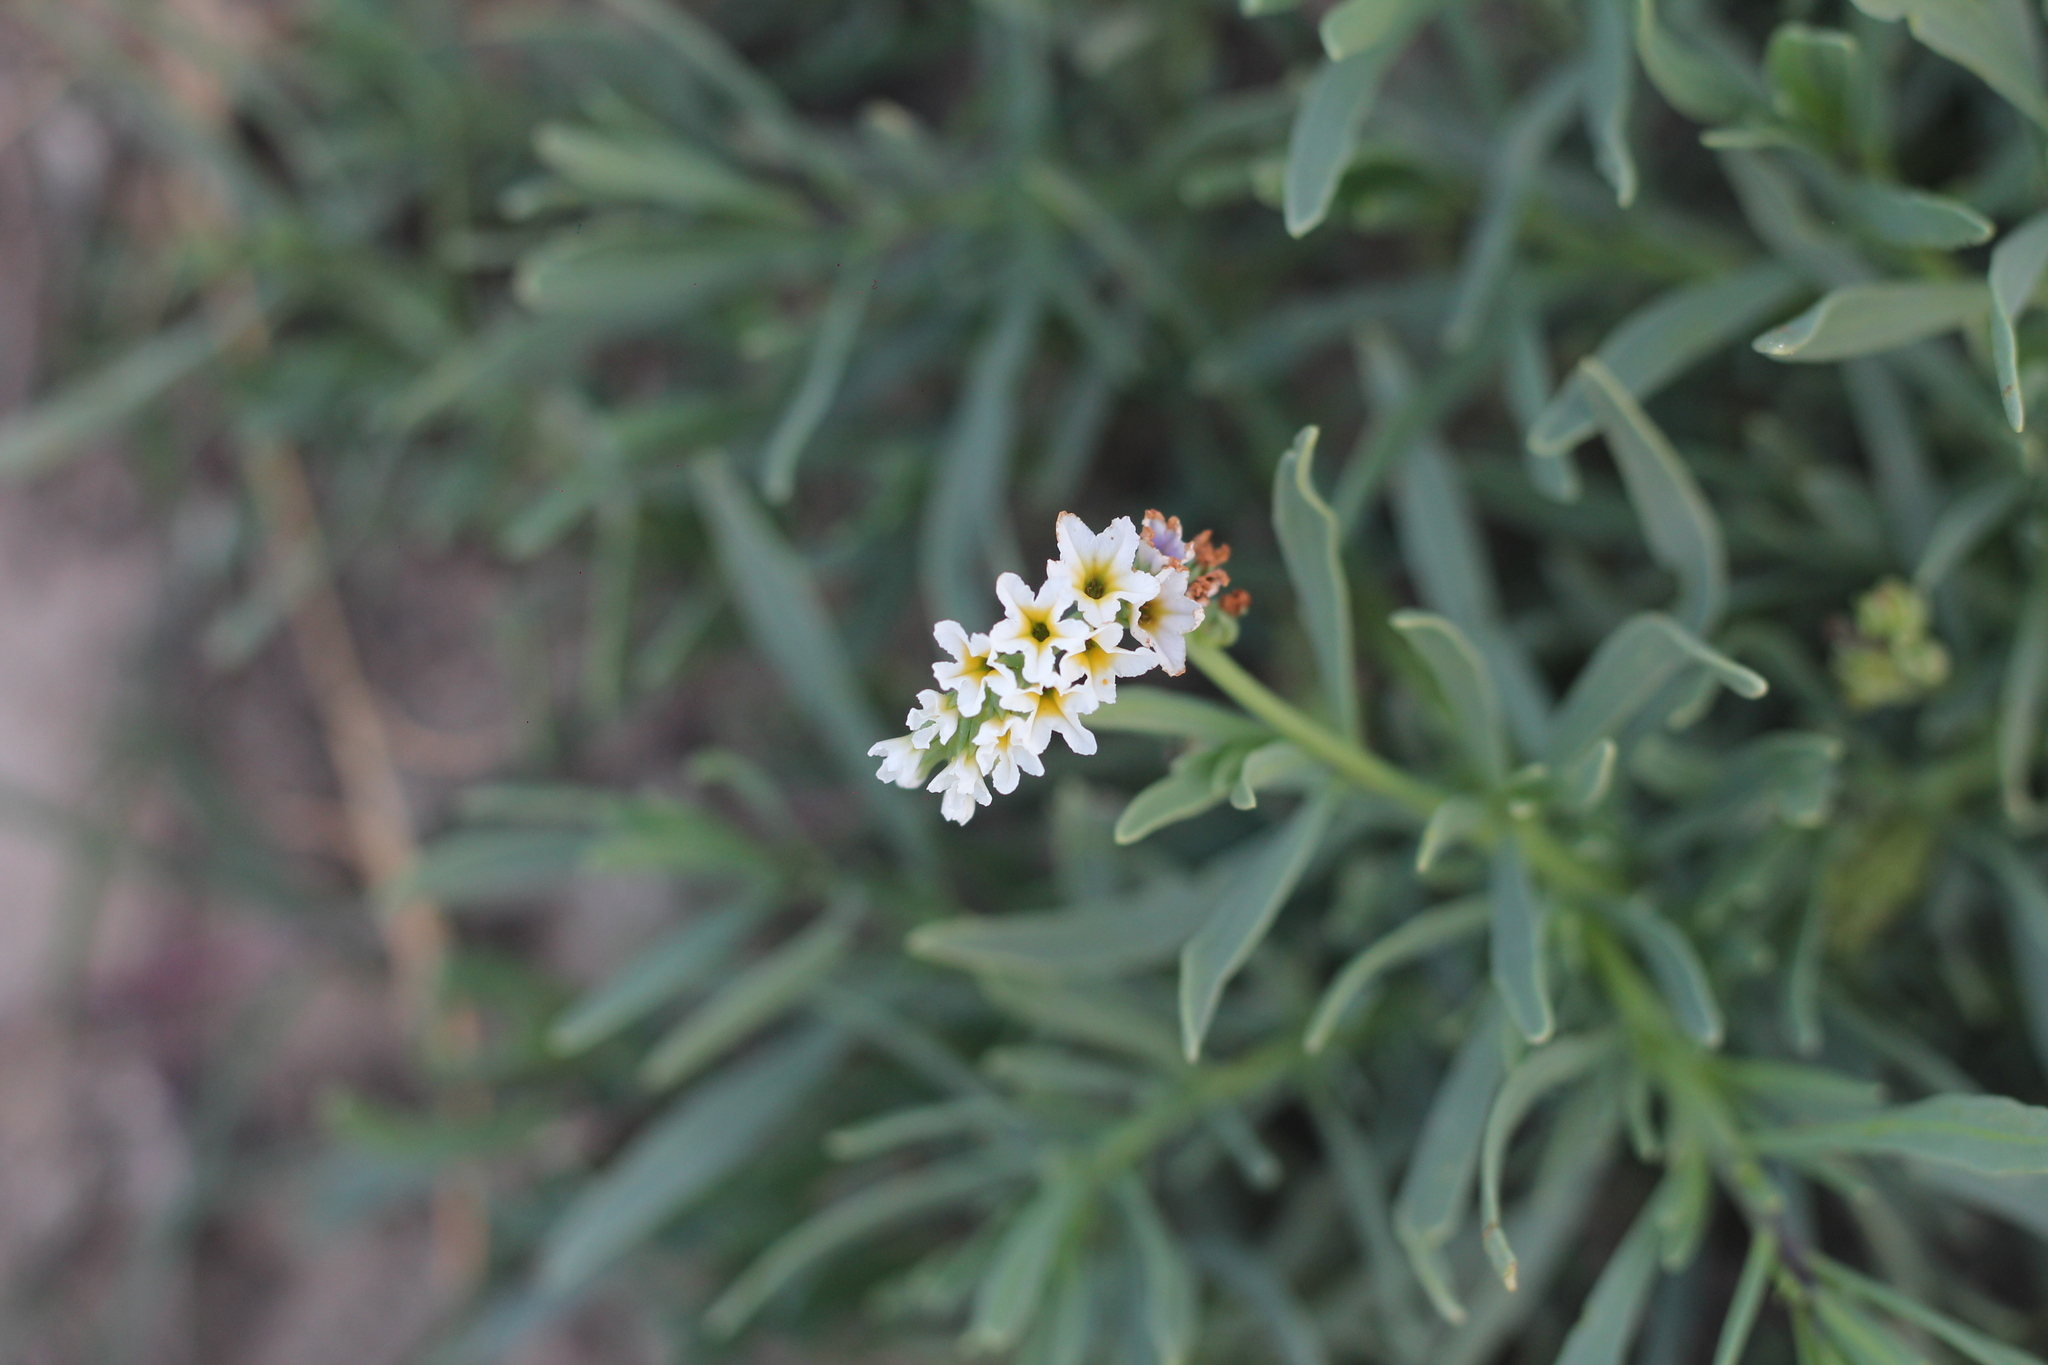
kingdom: Plantae
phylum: Tracheophyta
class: Magnoliopsida
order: Boraginales
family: Heliotropiaceae
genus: Heliotropium
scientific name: Heliotropium curassavicum
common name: Seaside heliotrope
